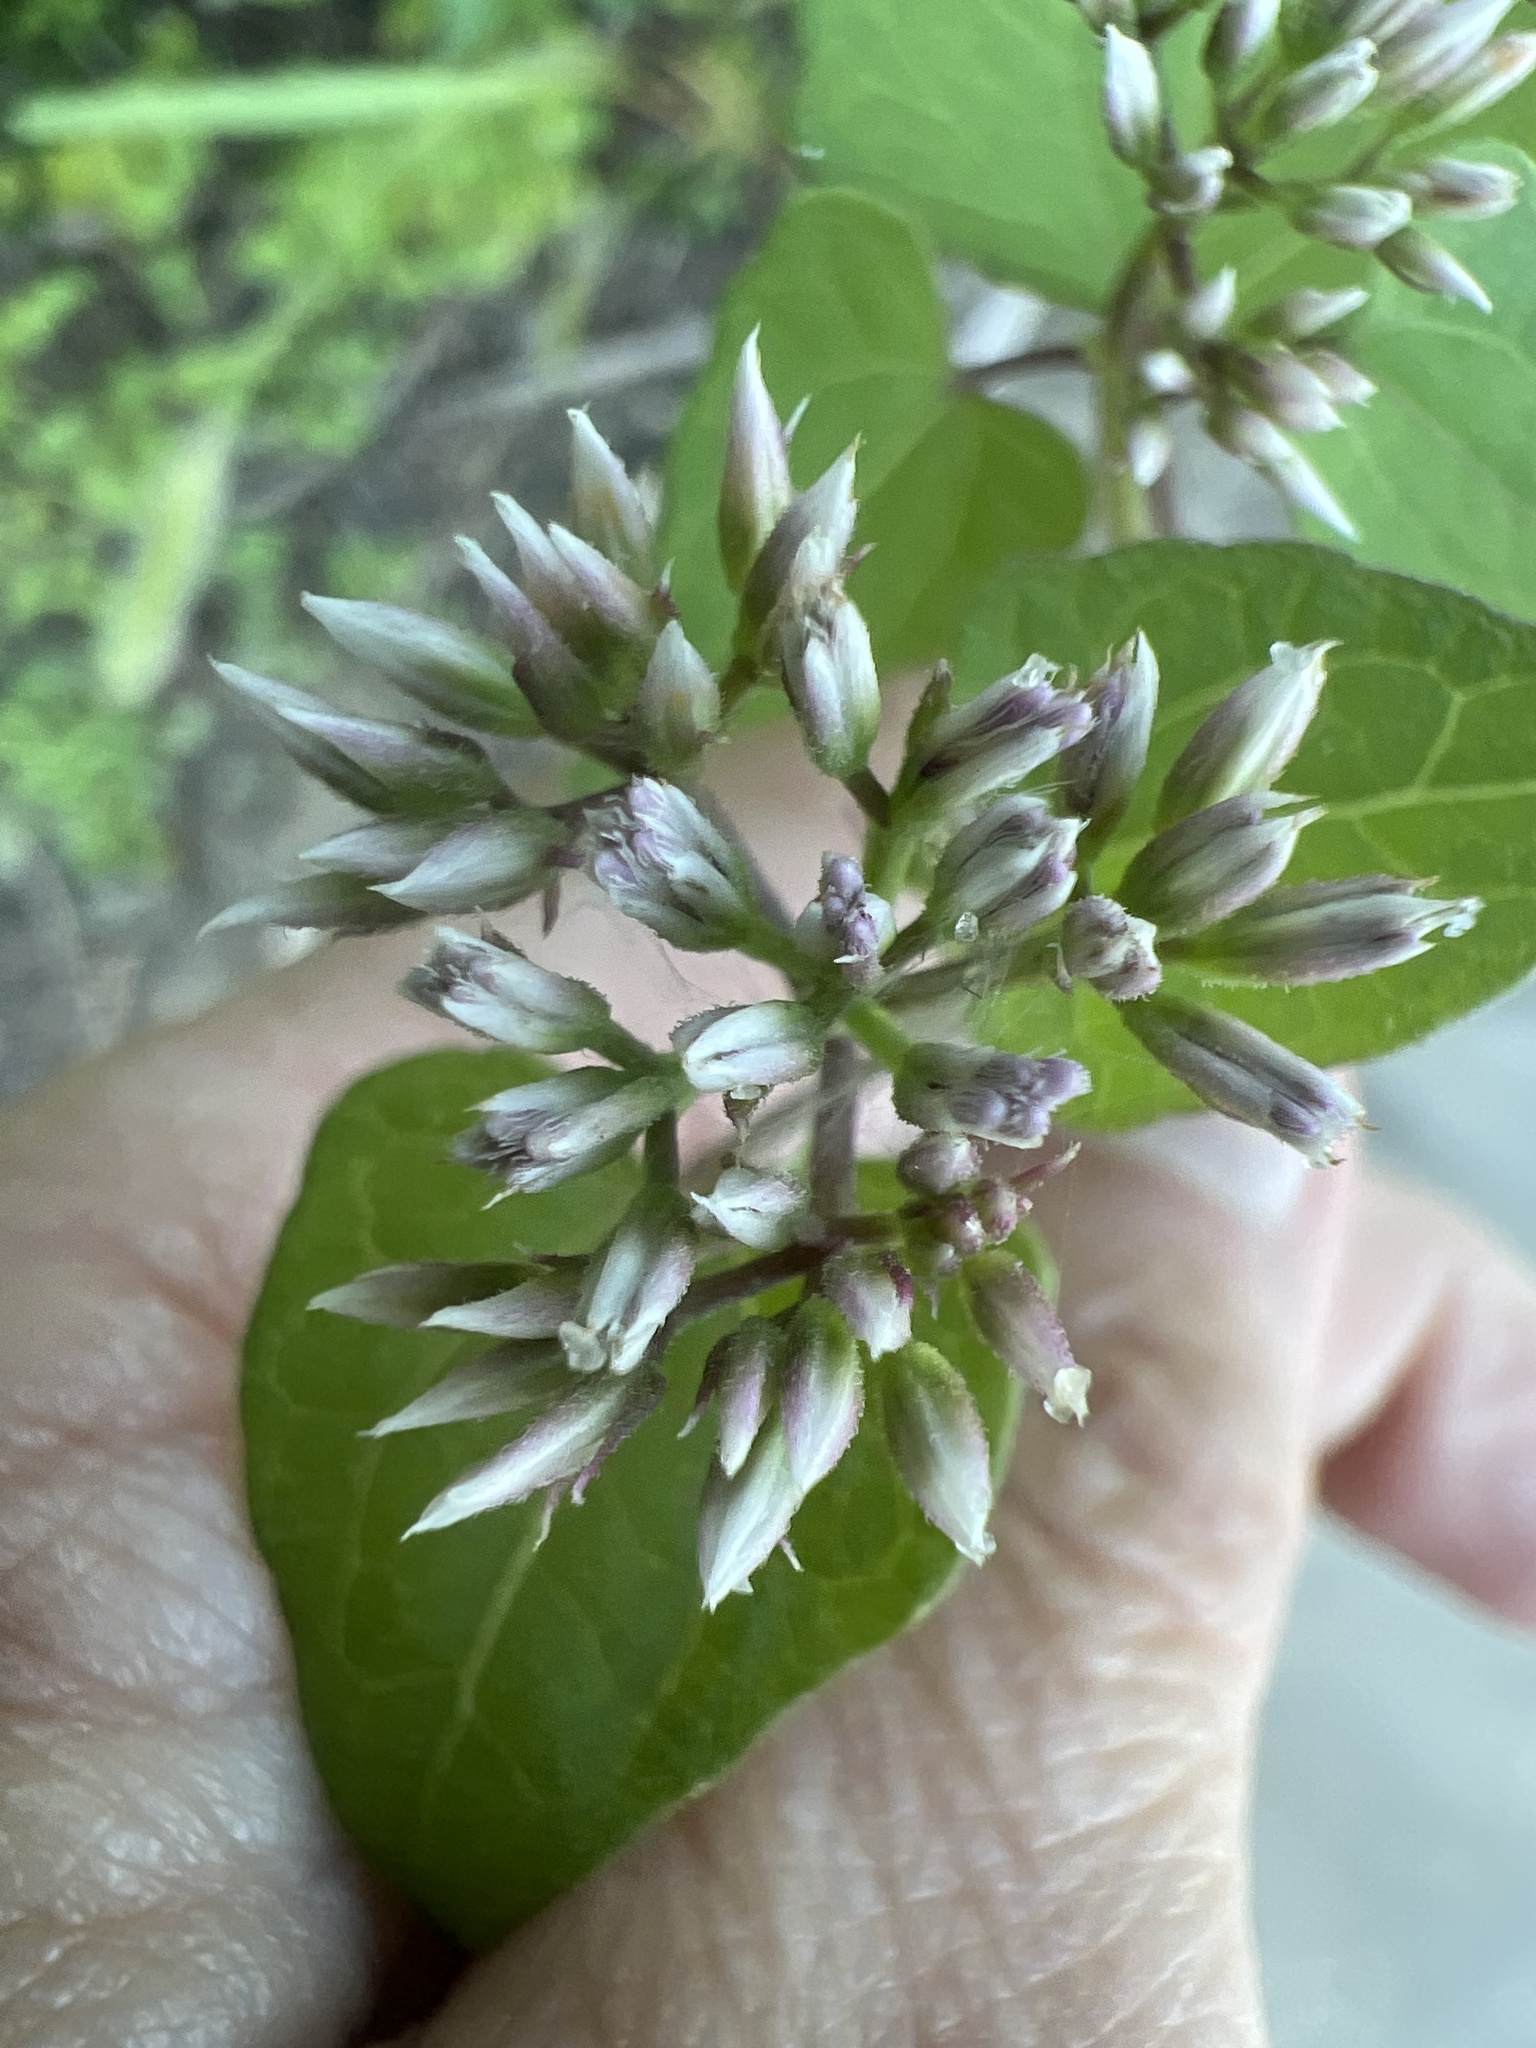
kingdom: Plantae
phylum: Tracheophyta
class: Magnoliopsida
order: Asterales
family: Asteraceae
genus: Mikania
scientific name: Mikania scandens
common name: Climbing hempvine
